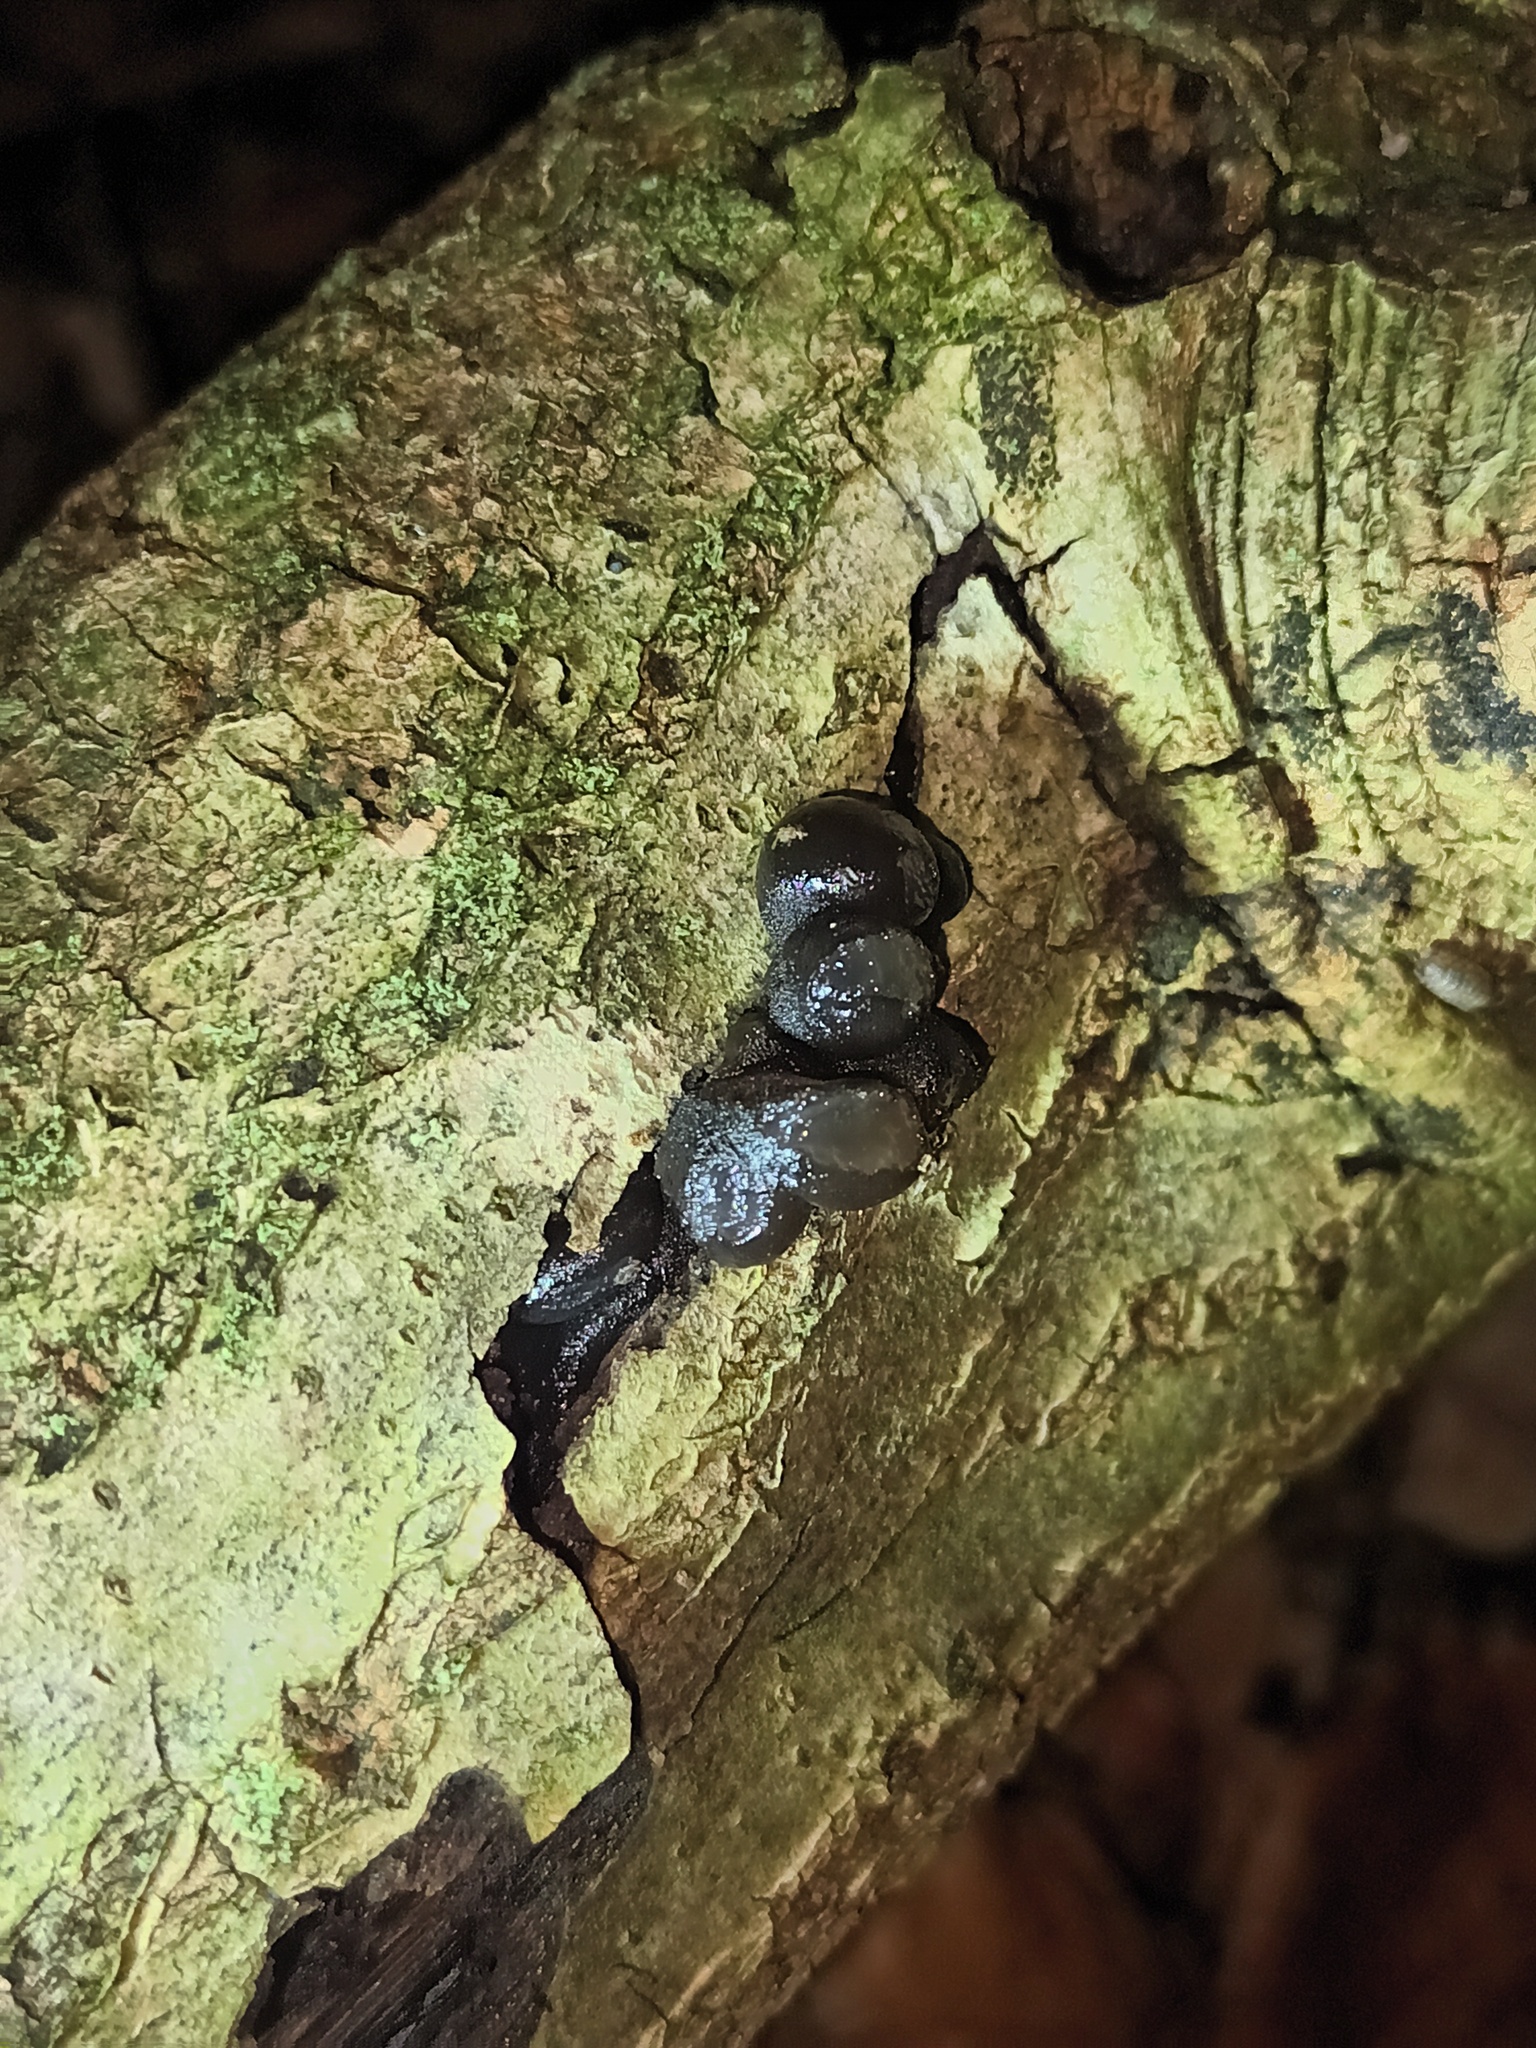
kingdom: Fungi
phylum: Ascomycota
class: Leotiomycetes
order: Phacidiales
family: Phacidiaceae
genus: Bulgaria
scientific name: Bulgaria inquinans
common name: Black bulgar
